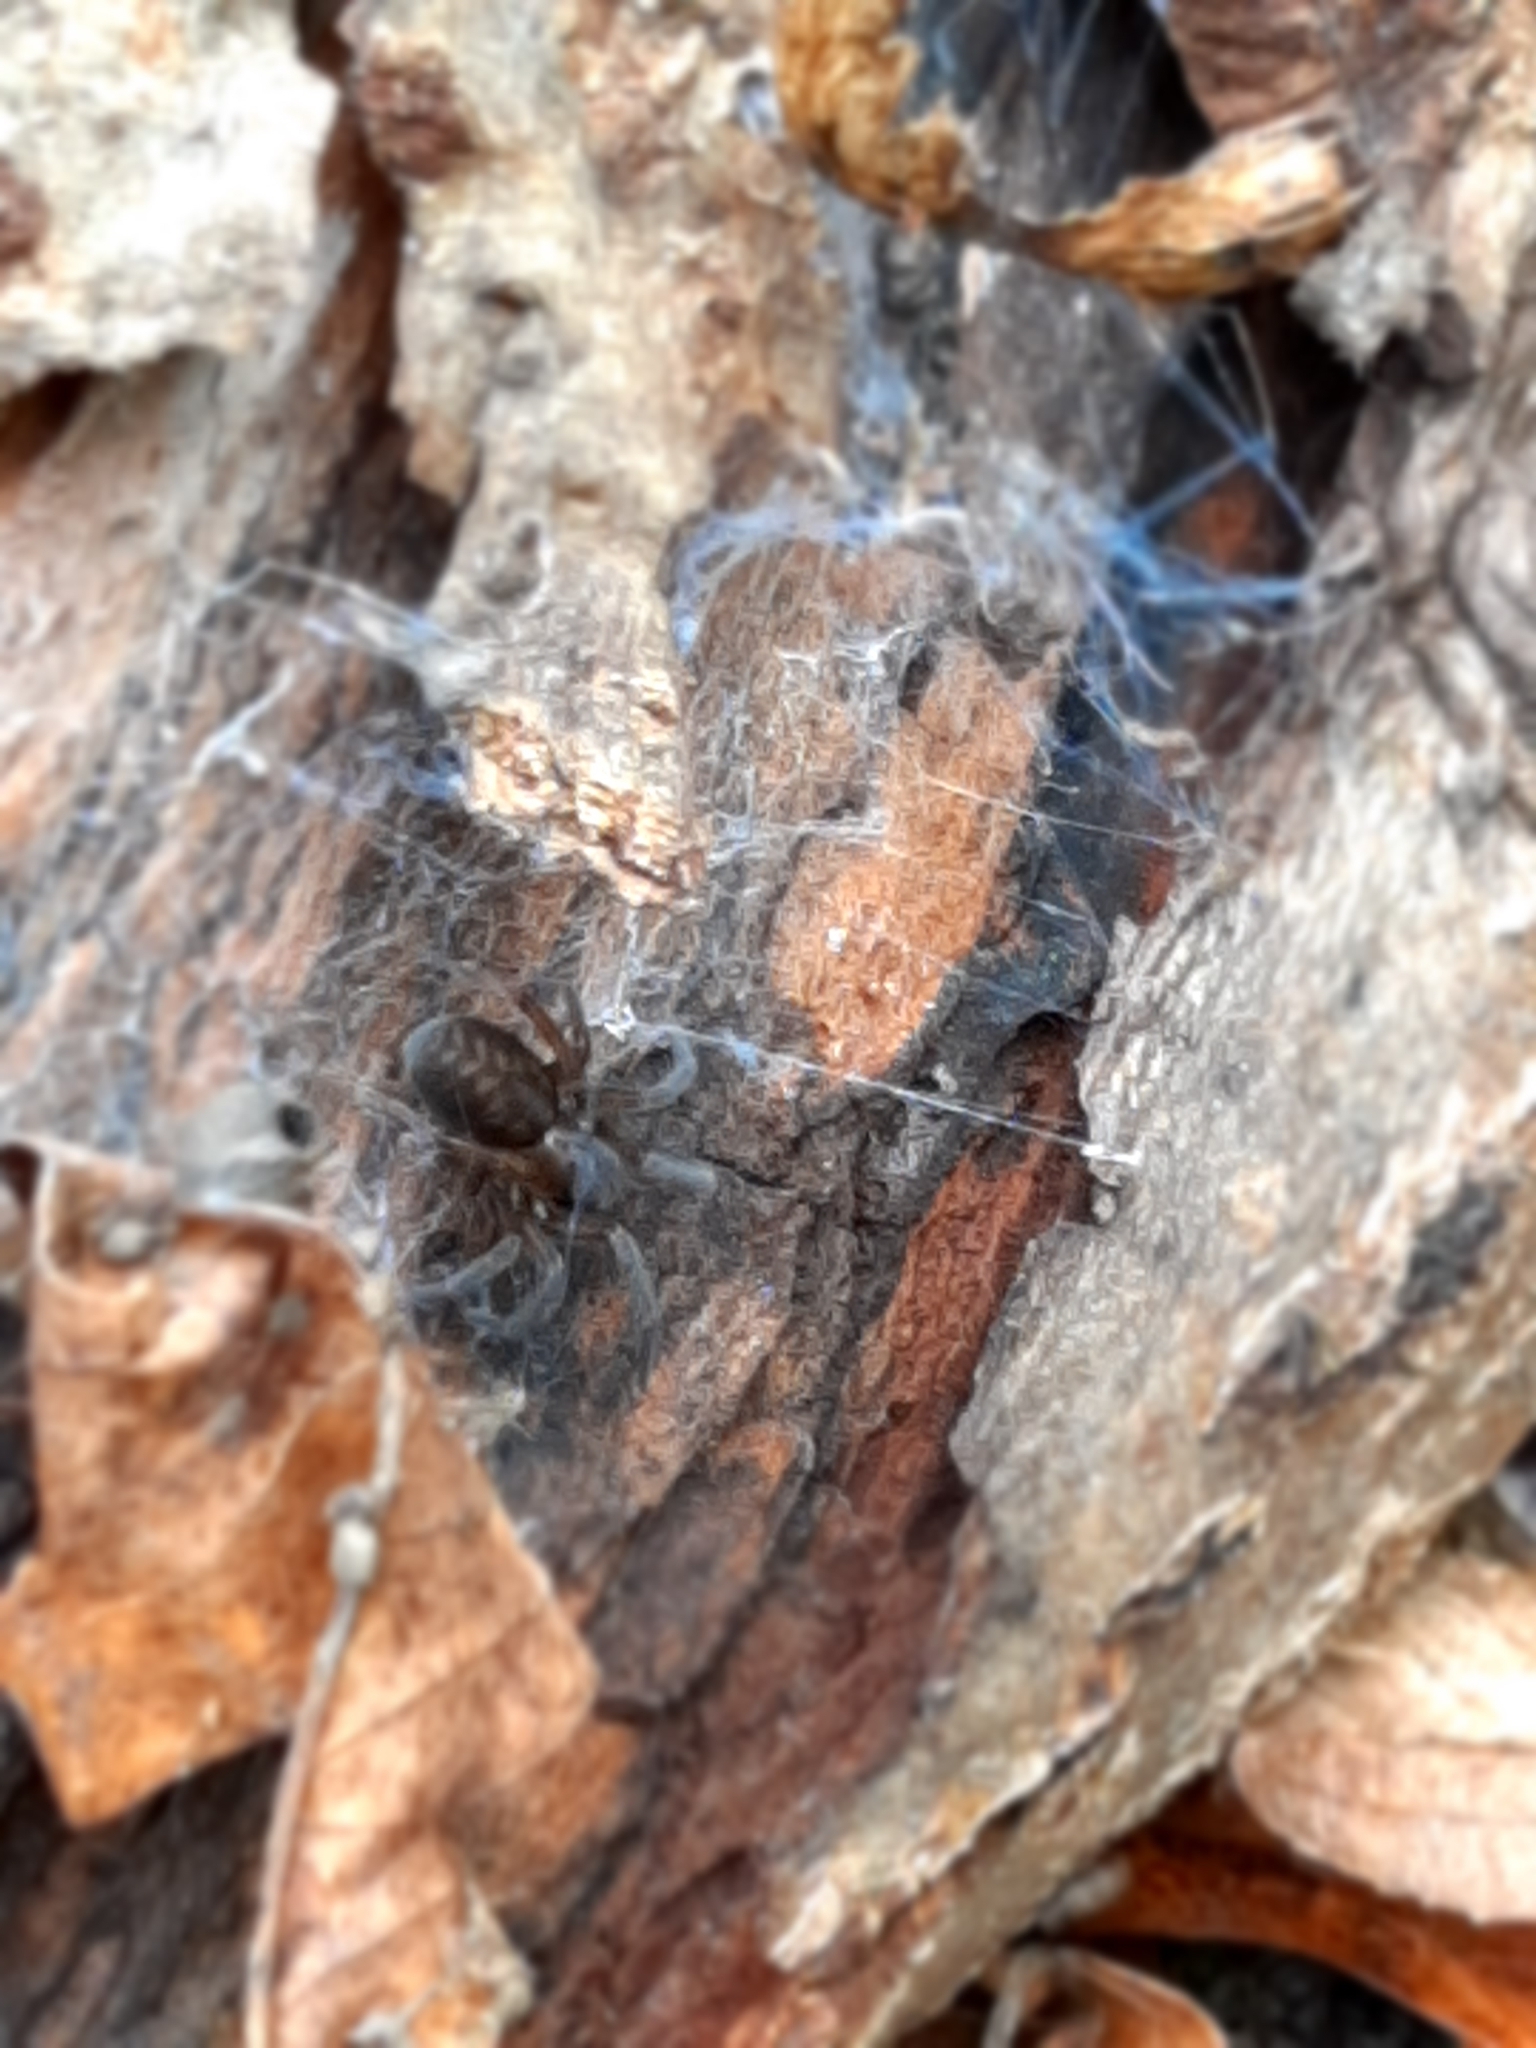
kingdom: Animalia
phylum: Arthropoda
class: Arachnida
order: Araneae
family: Amaurobiidae
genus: Amaurobius
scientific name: Amaurobius
